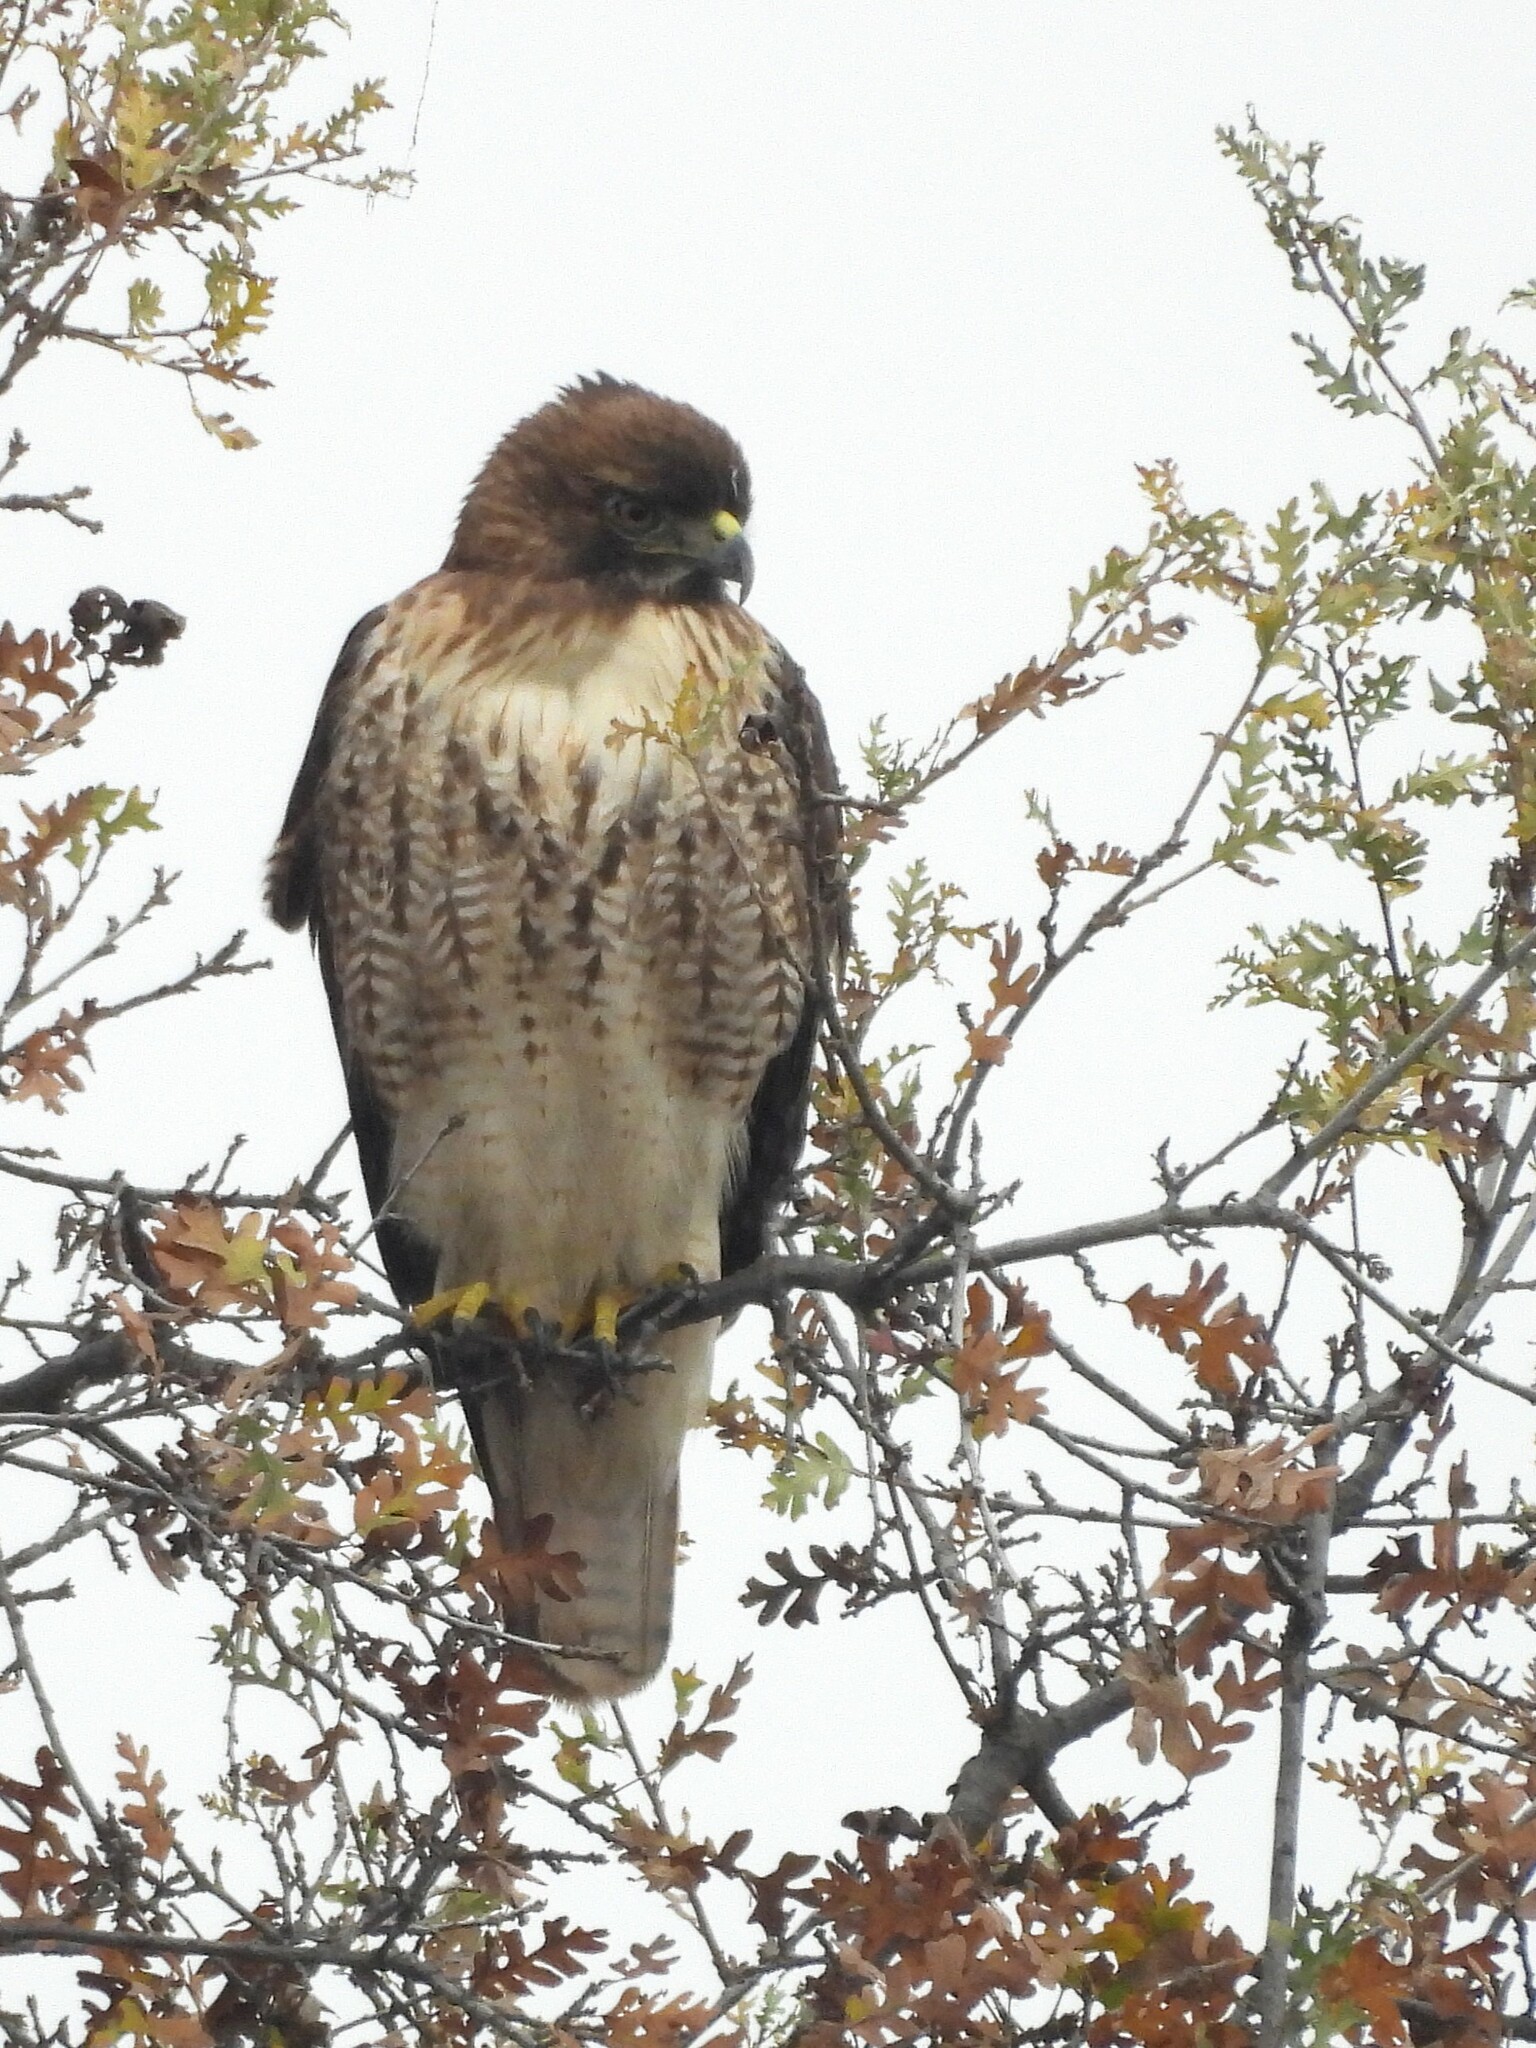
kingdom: Animalia
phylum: Chordata
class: Aves
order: Accipitriformes
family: Accipitridae
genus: Buteo
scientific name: Buteo jamaicensis
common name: Red-tailed hawk
